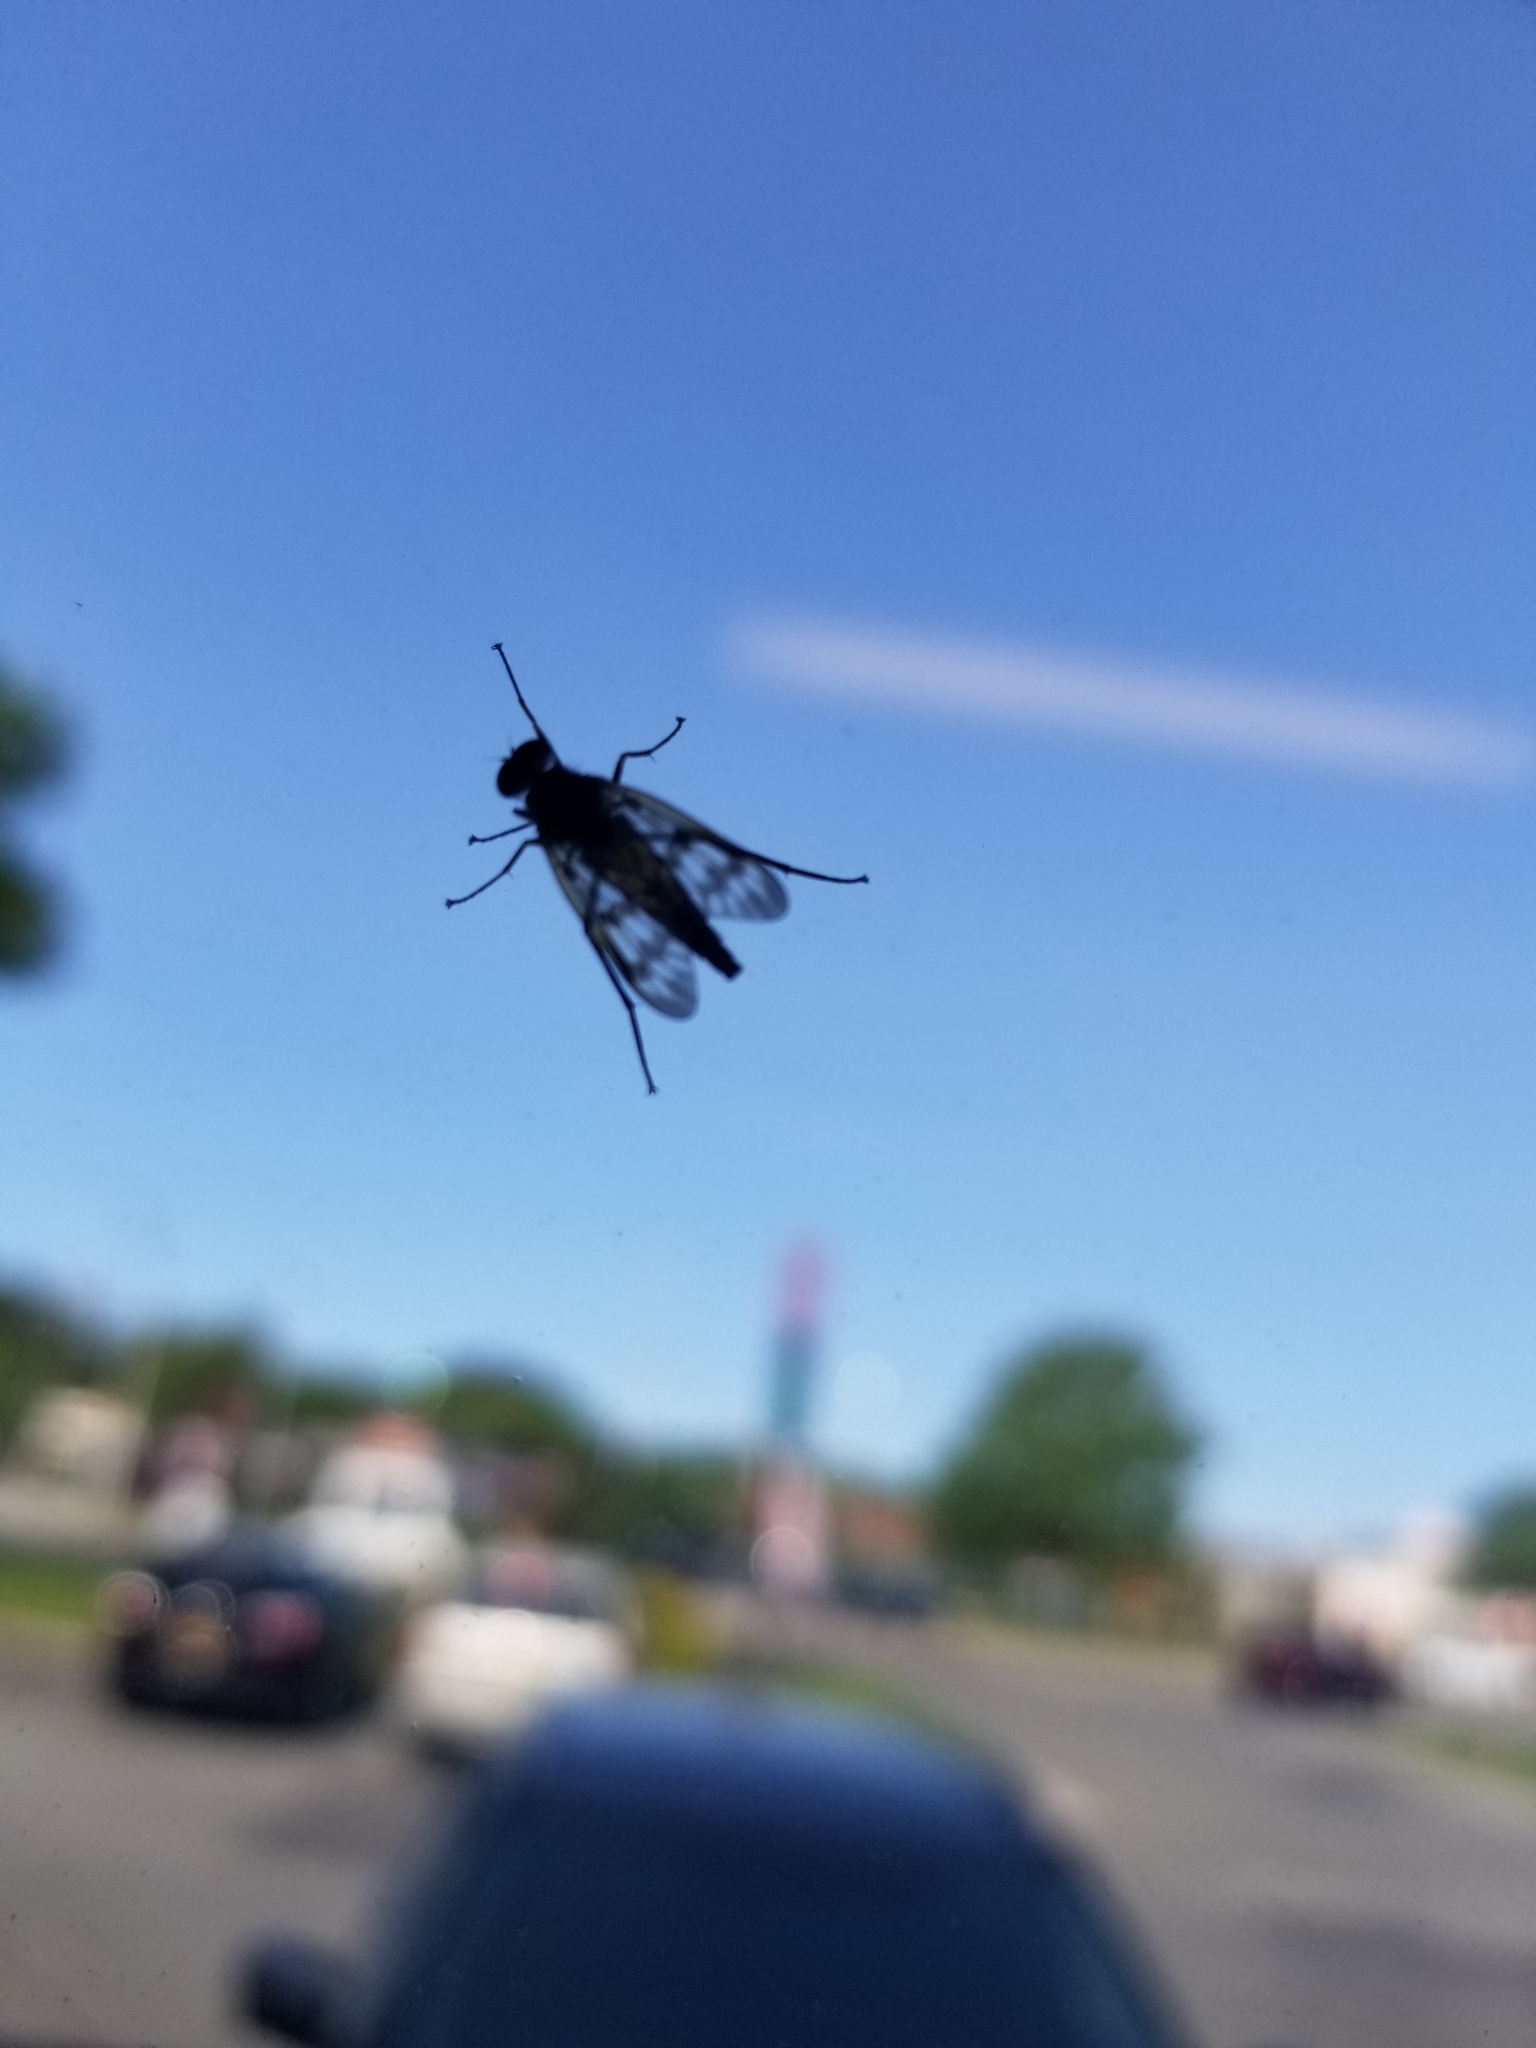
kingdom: Animalia
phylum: Arthropoda
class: Insecta
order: Diptera
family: Rhagionidae
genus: Rhagio
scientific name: Rhagio mystaceus
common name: Common snipe fly
